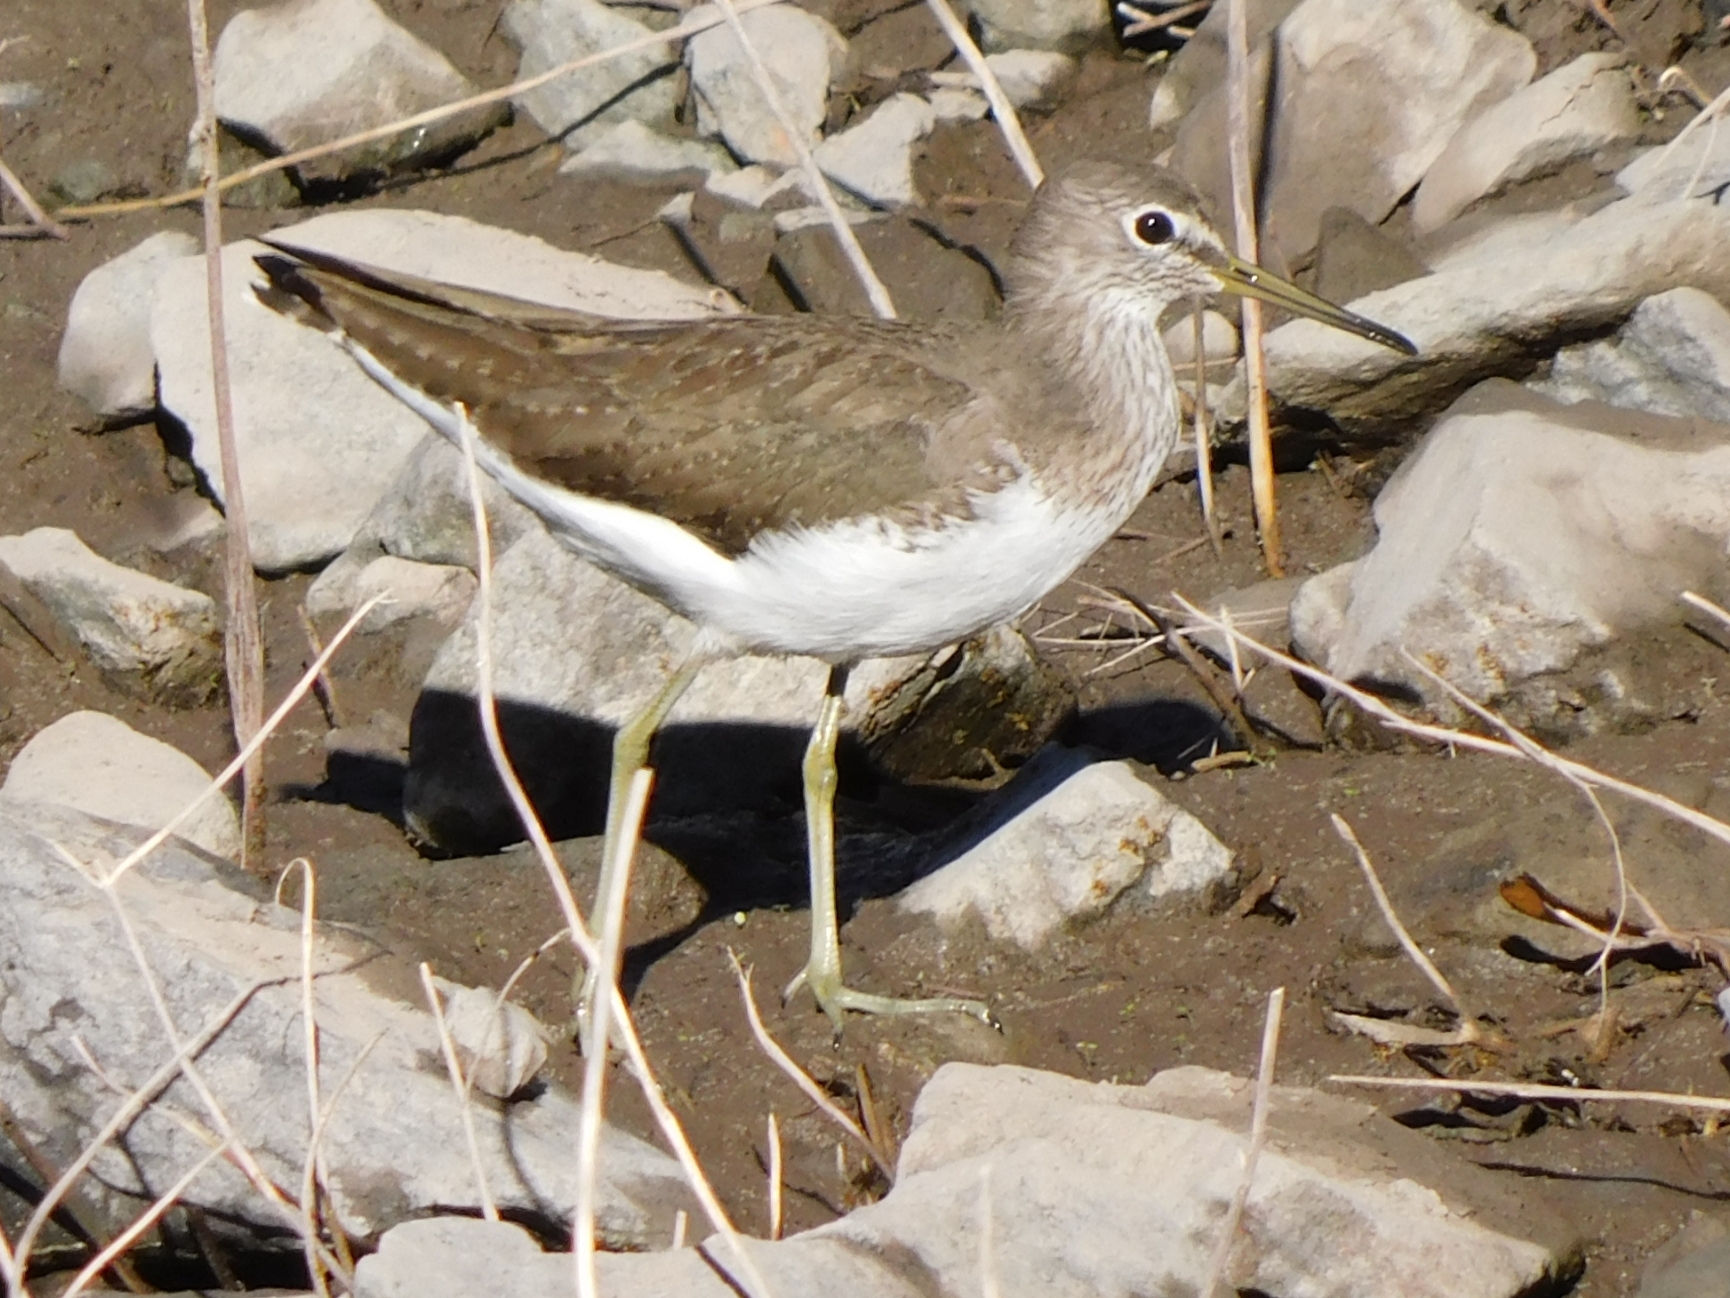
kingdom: Animalia
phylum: Chordata
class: Aves
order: Charadriiformes
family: Scolopacidae
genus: Tringa
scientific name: Tringa ochropus
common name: Green sandpiper
